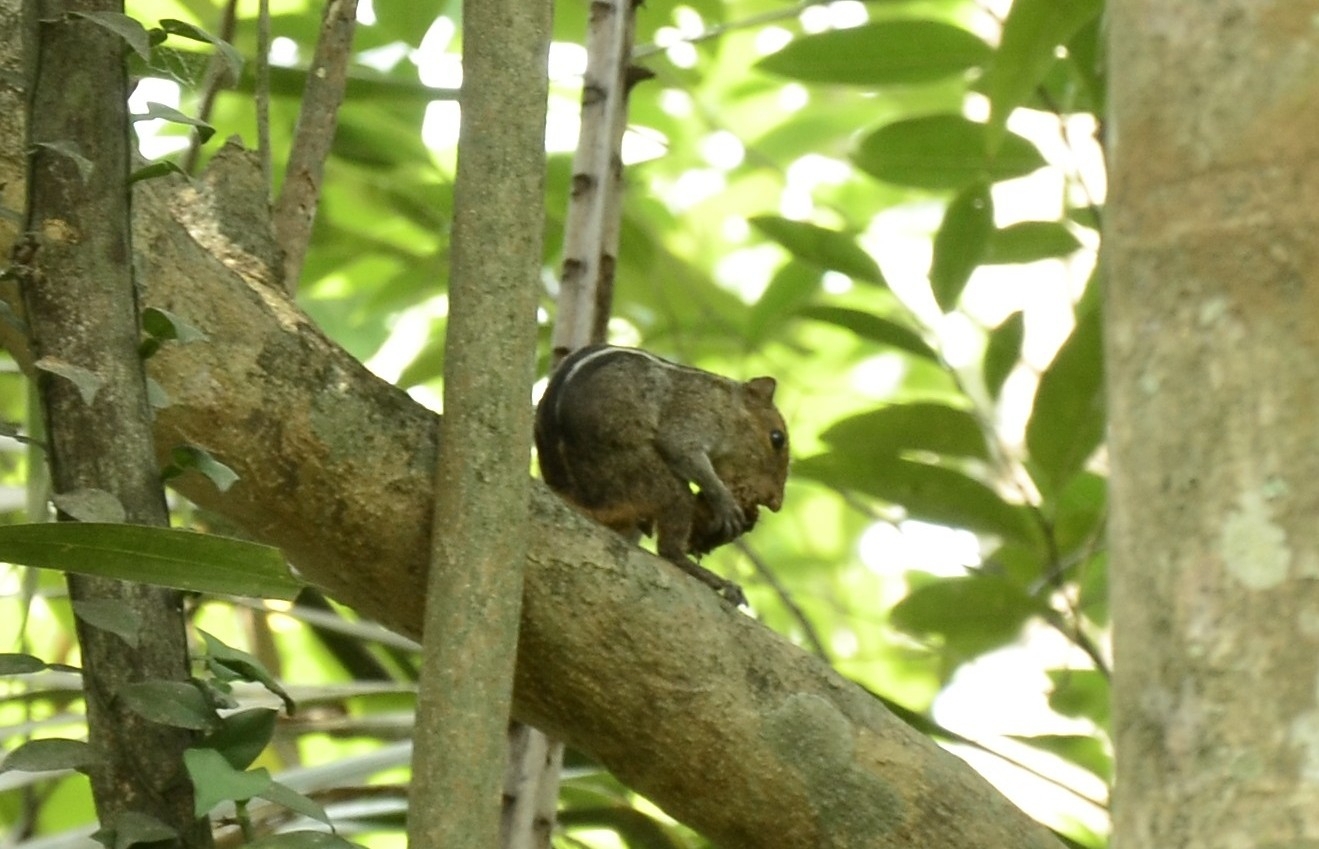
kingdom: Animalia
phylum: Chordata
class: Mammalia
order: Rodentia
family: Sciuridae
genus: Funambulus
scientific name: Funambulus tristriatus
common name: Jungle palm squirrel
